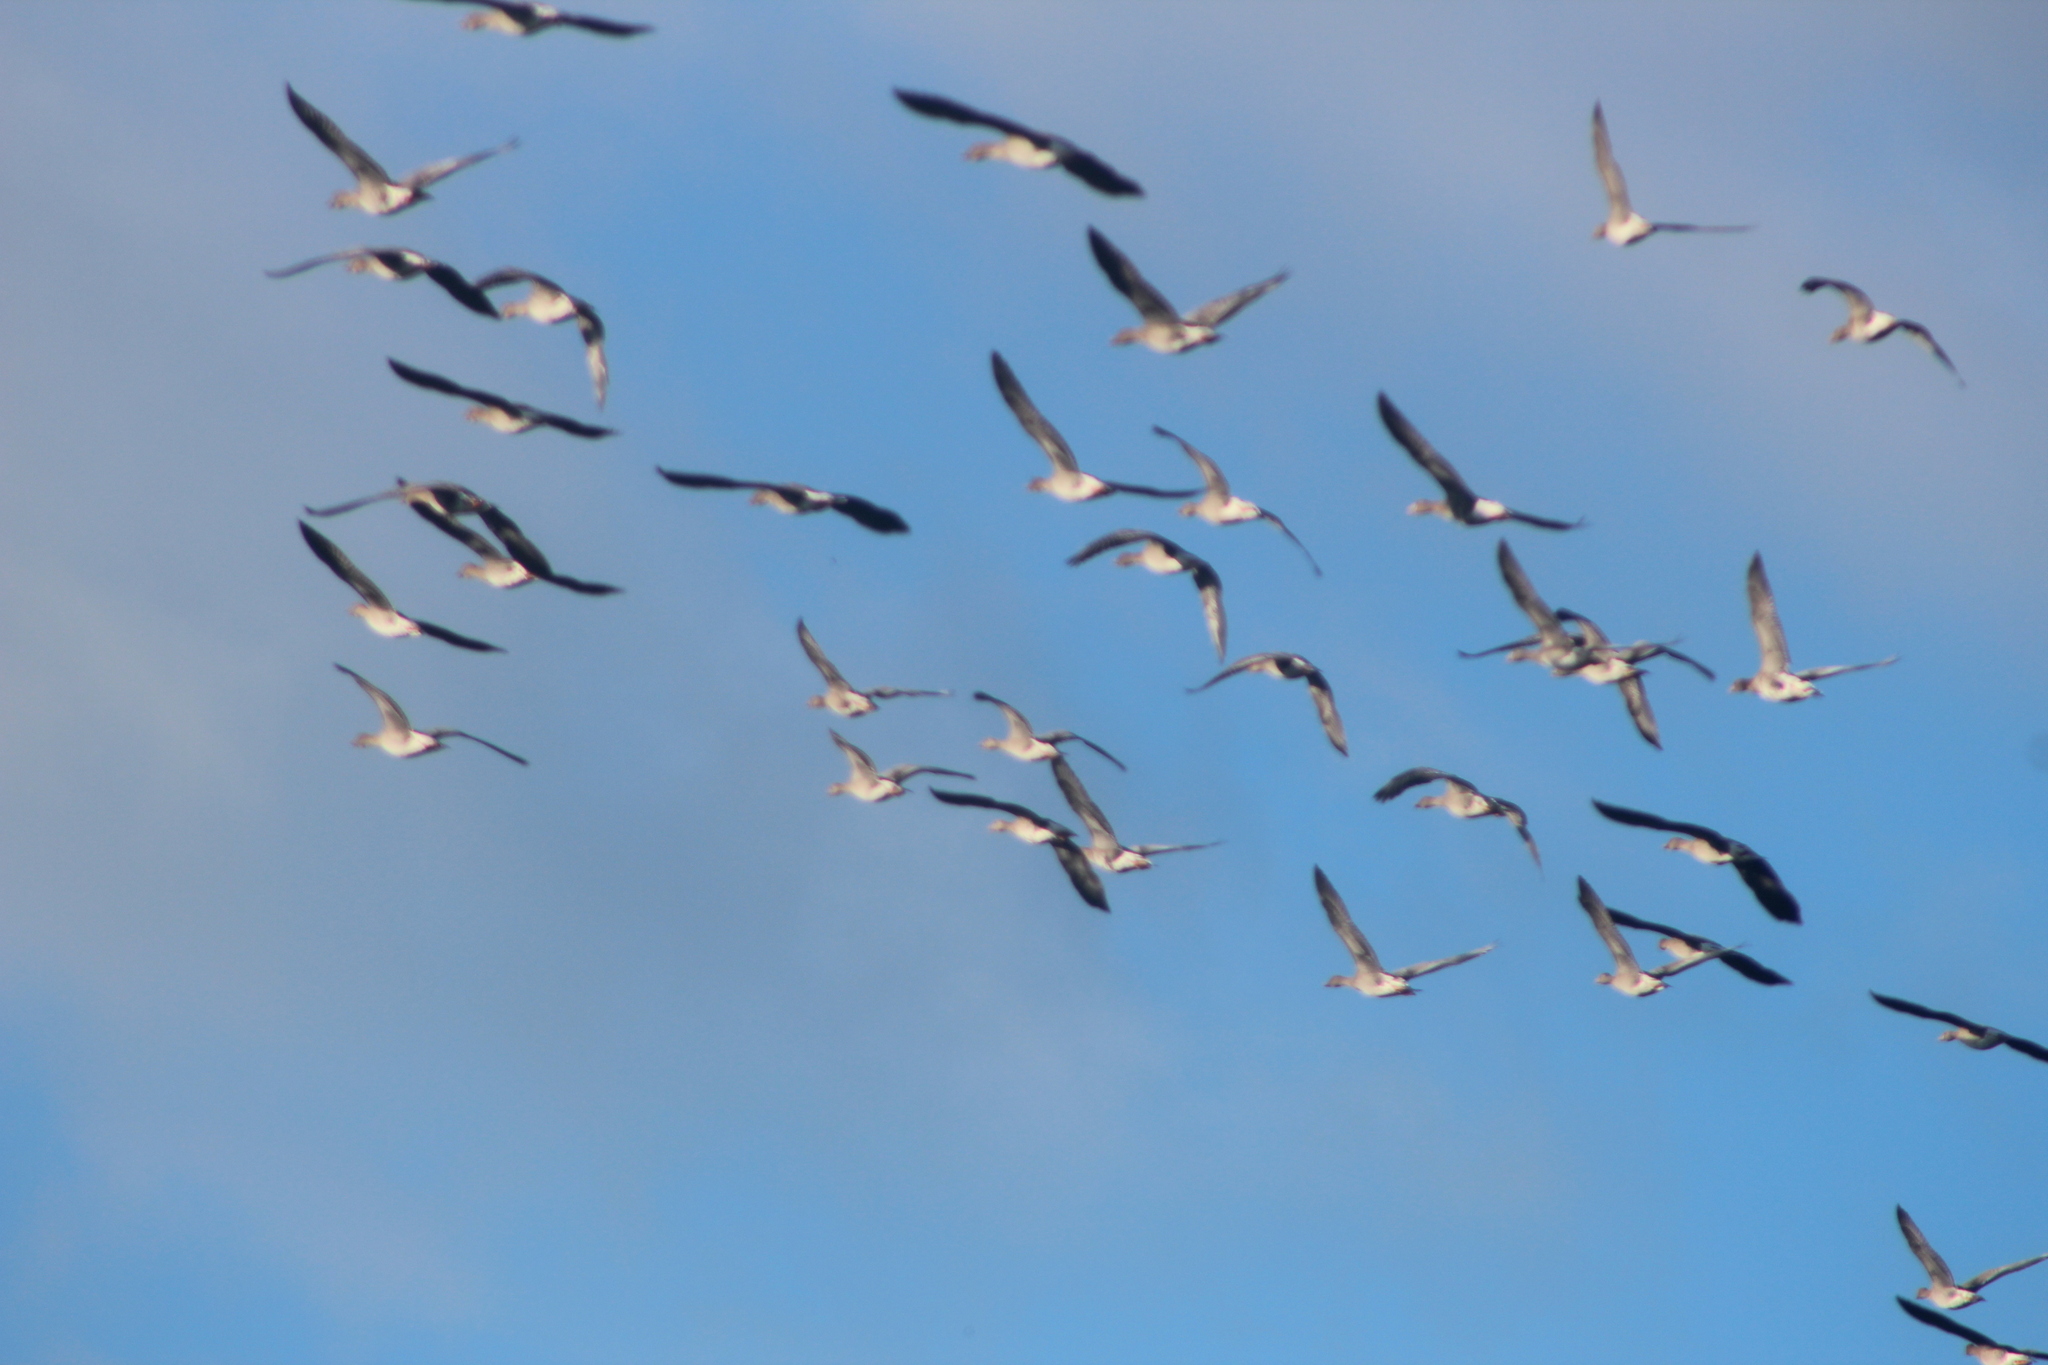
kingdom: Animalia
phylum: Chordata
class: Aves
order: Anseriformes
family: Anatidae
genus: Anser
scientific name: Anser serrirostris
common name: Tundra bean goose
